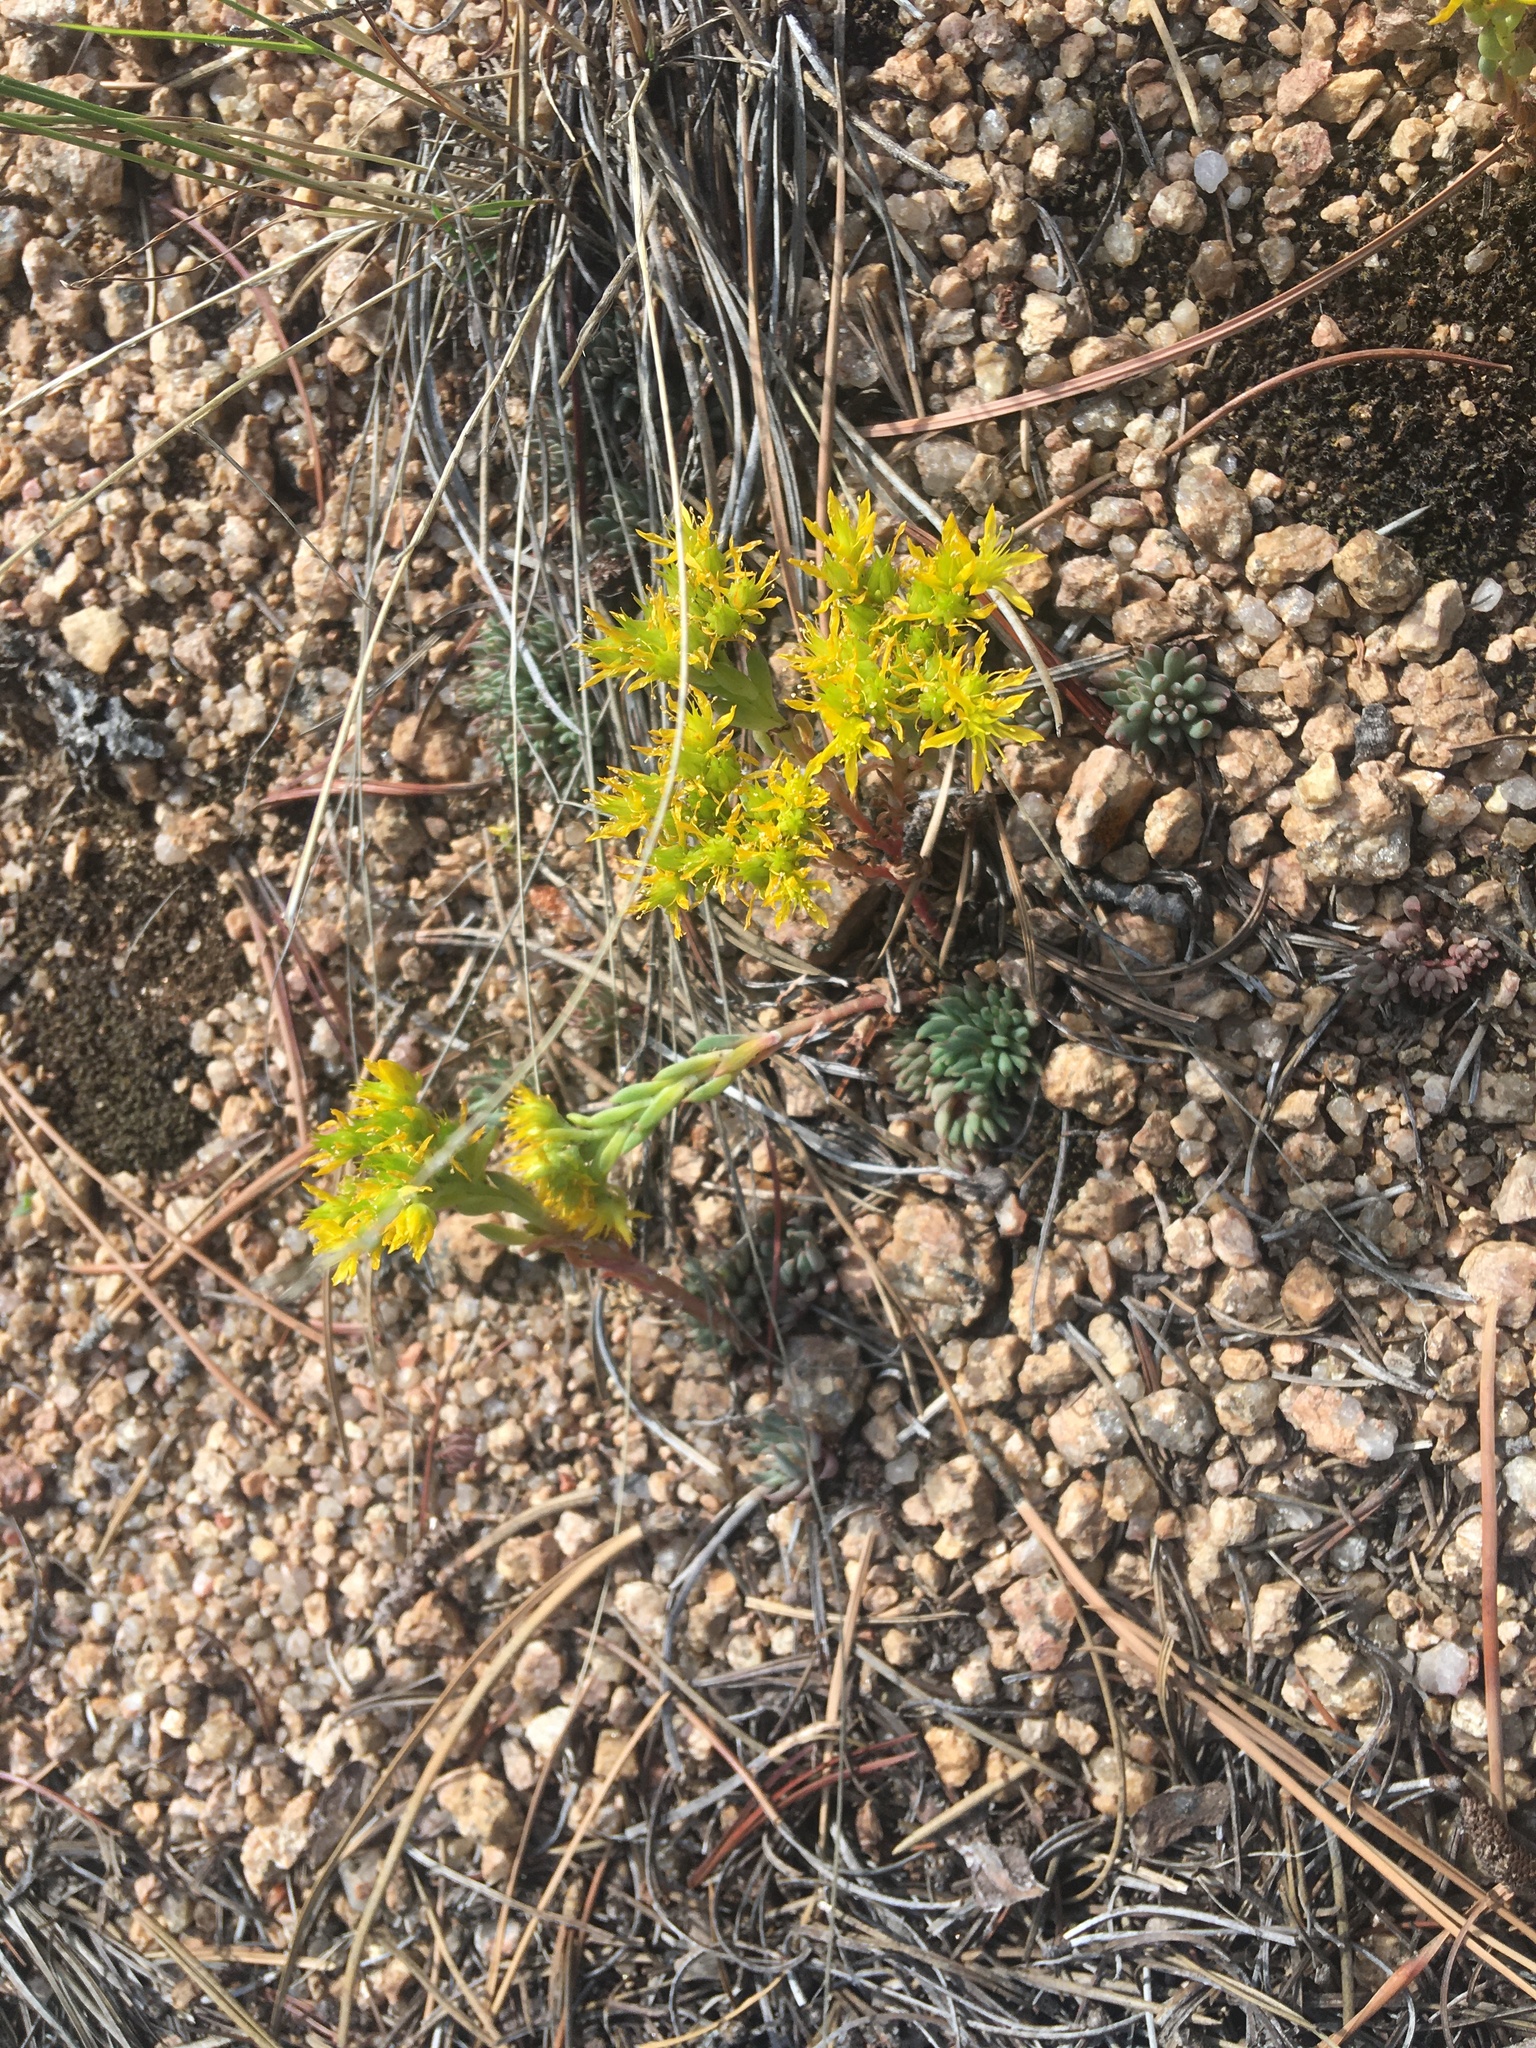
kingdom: Plantae
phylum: Tracheophyta
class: Magnoliopsida
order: Saxifragales
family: Crassulaceae
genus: Sedum
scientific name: Sedum lanceolatum
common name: Common stonecrop
